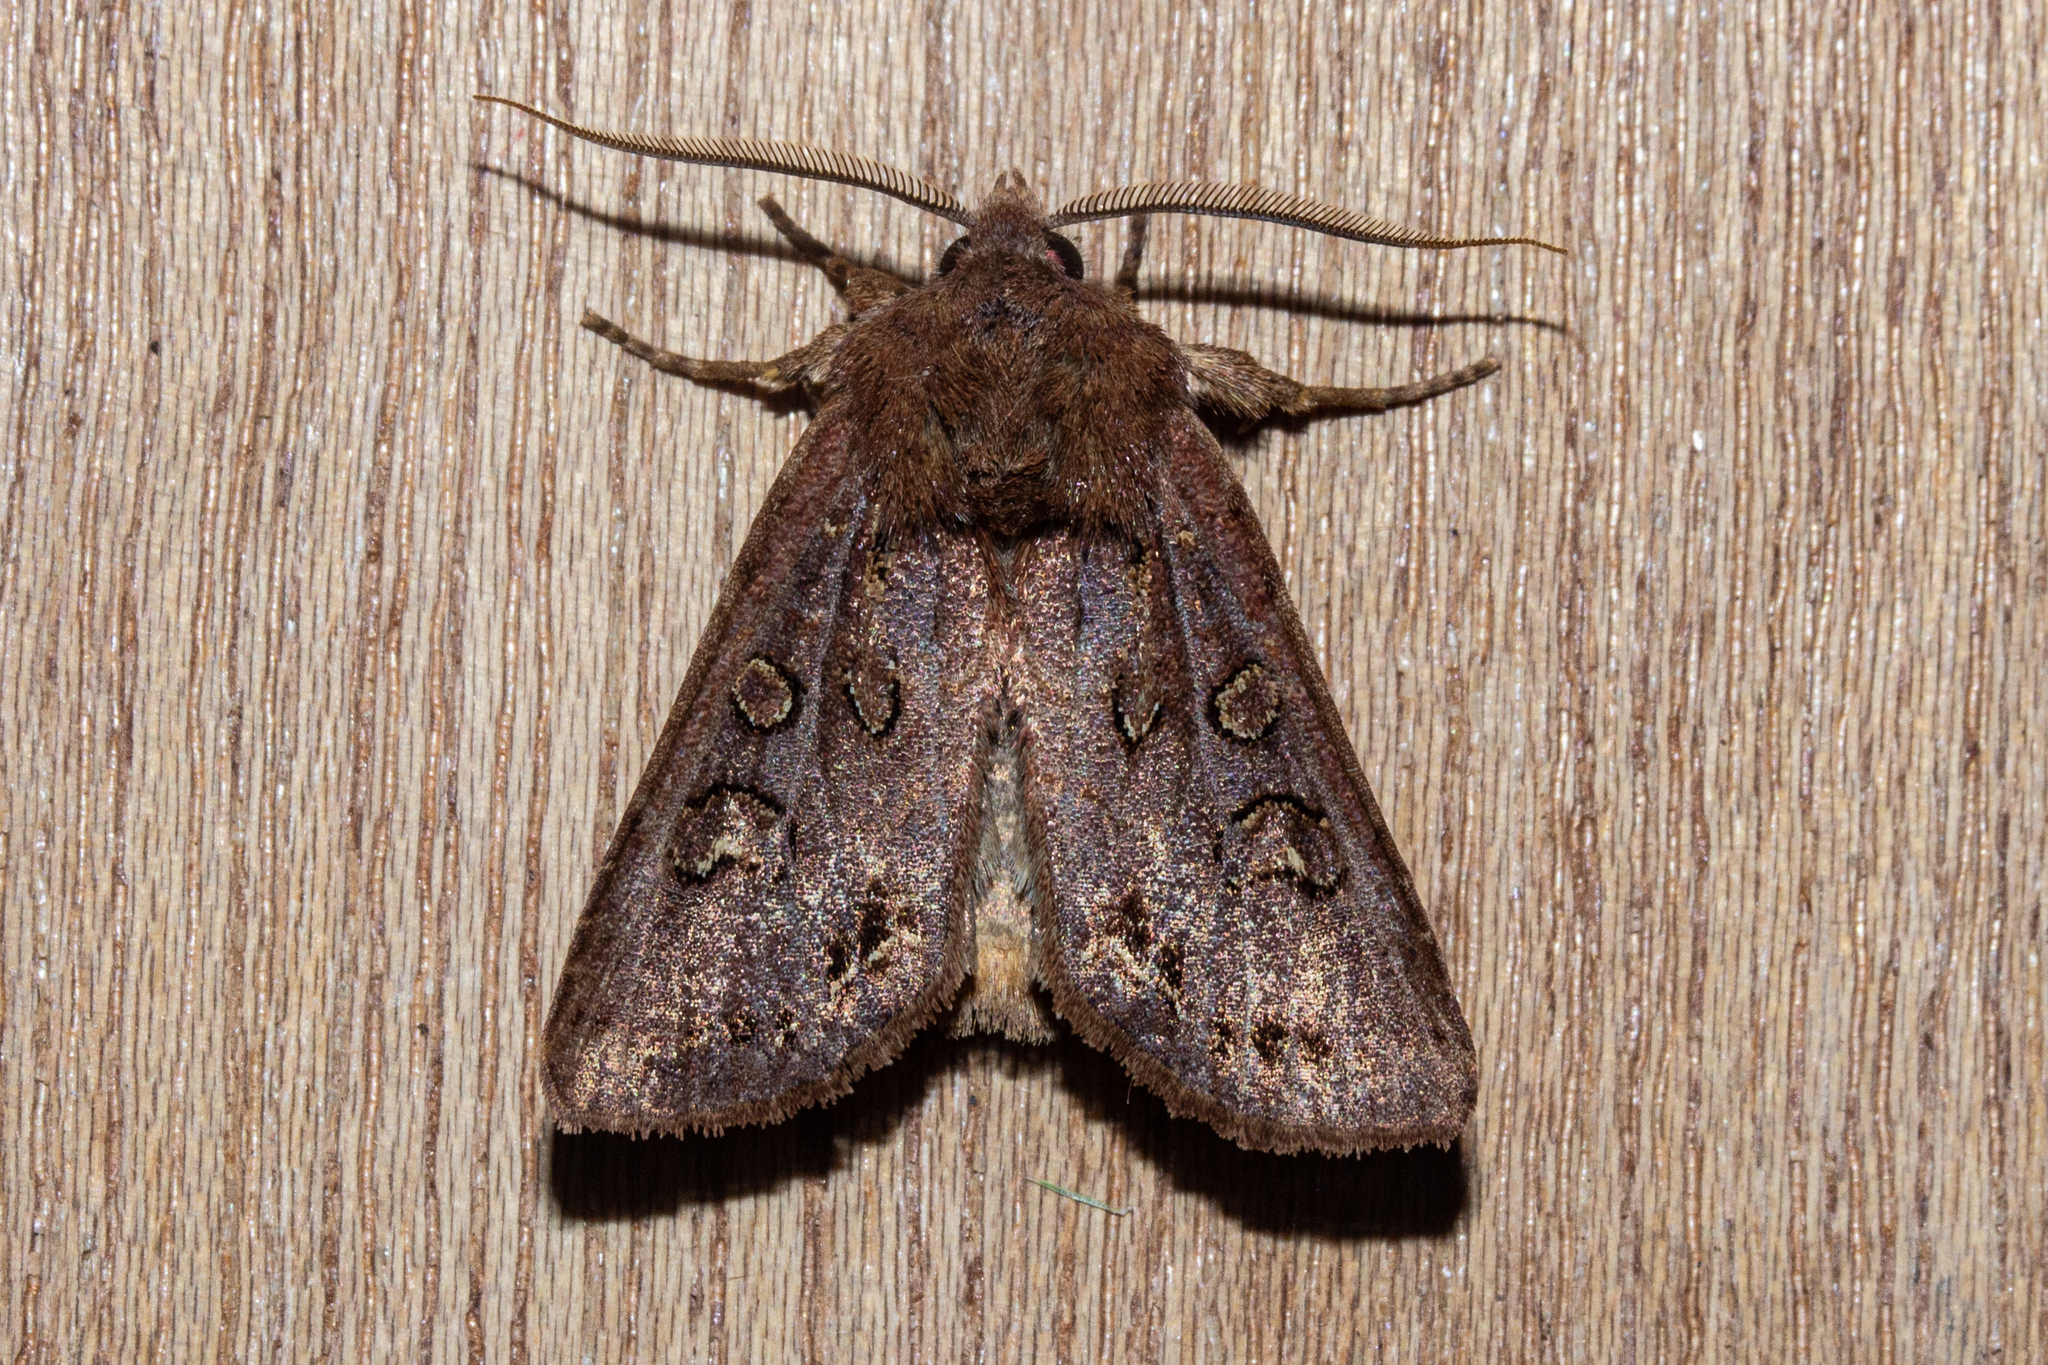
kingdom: Animalia
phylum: Arthropoda
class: Insecta
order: Lepidoptera
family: Noctuidae
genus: Ichneutica
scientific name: Ichneutica
